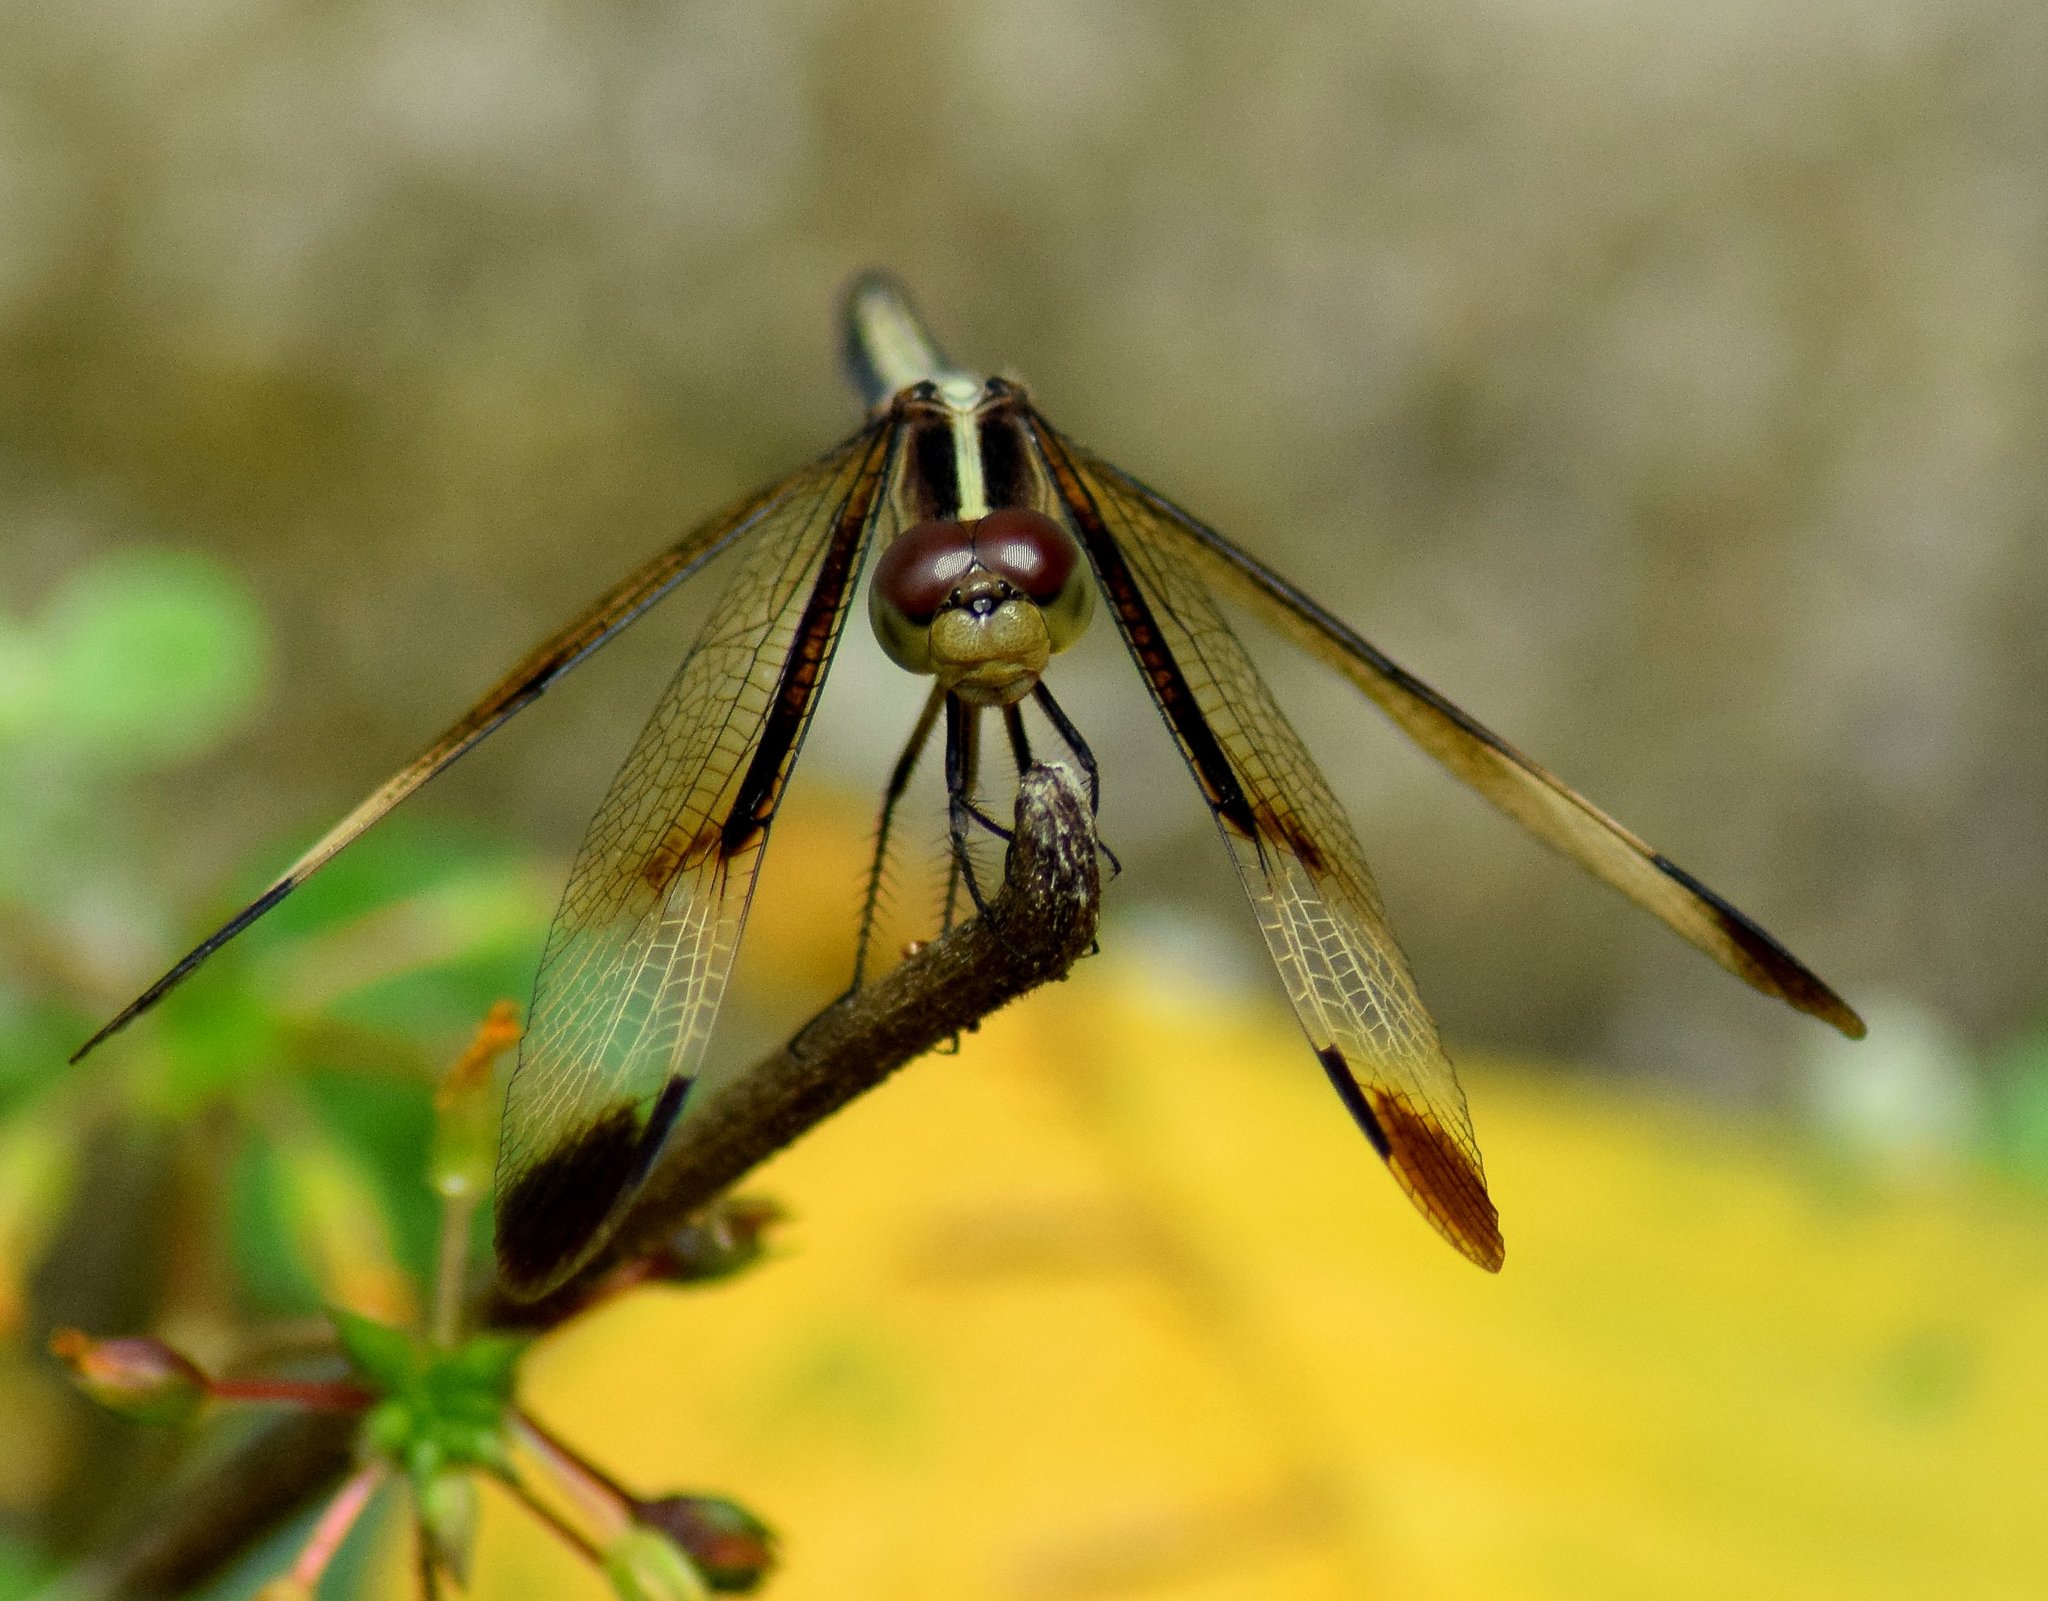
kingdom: Animalia
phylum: Arthropoda
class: Insecta
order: Odonata
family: Libellulidae
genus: Neurothemis
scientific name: Neurothemis tullia
